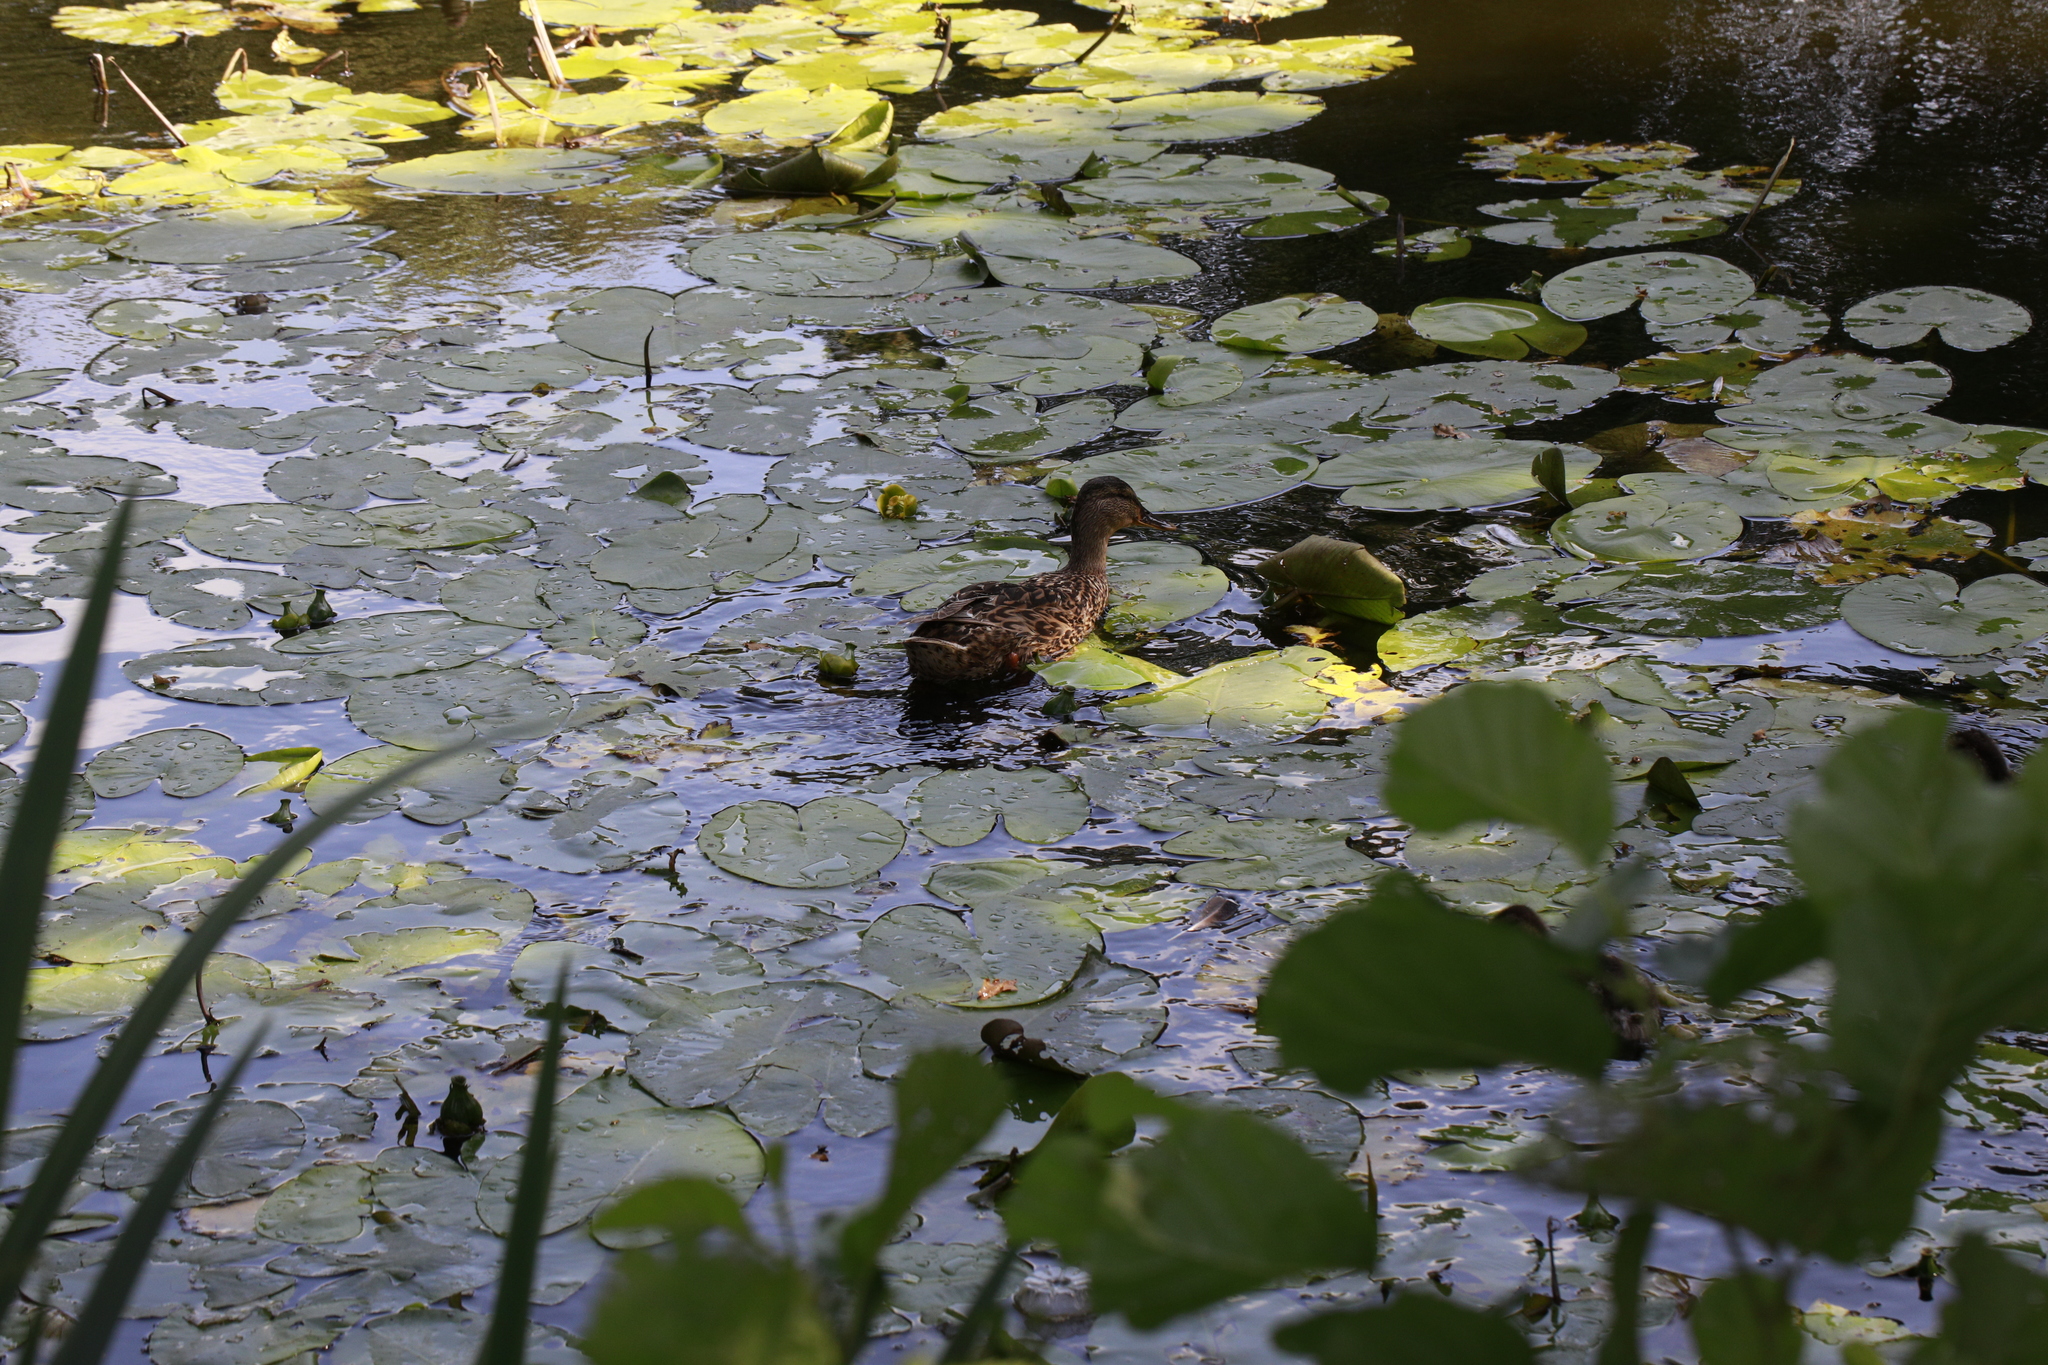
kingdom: Animalia
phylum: Chordata
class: Aves
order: Anseriformes
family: Anatidae
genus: Anas
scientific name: Anas platyrhynchos
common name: Mallard
